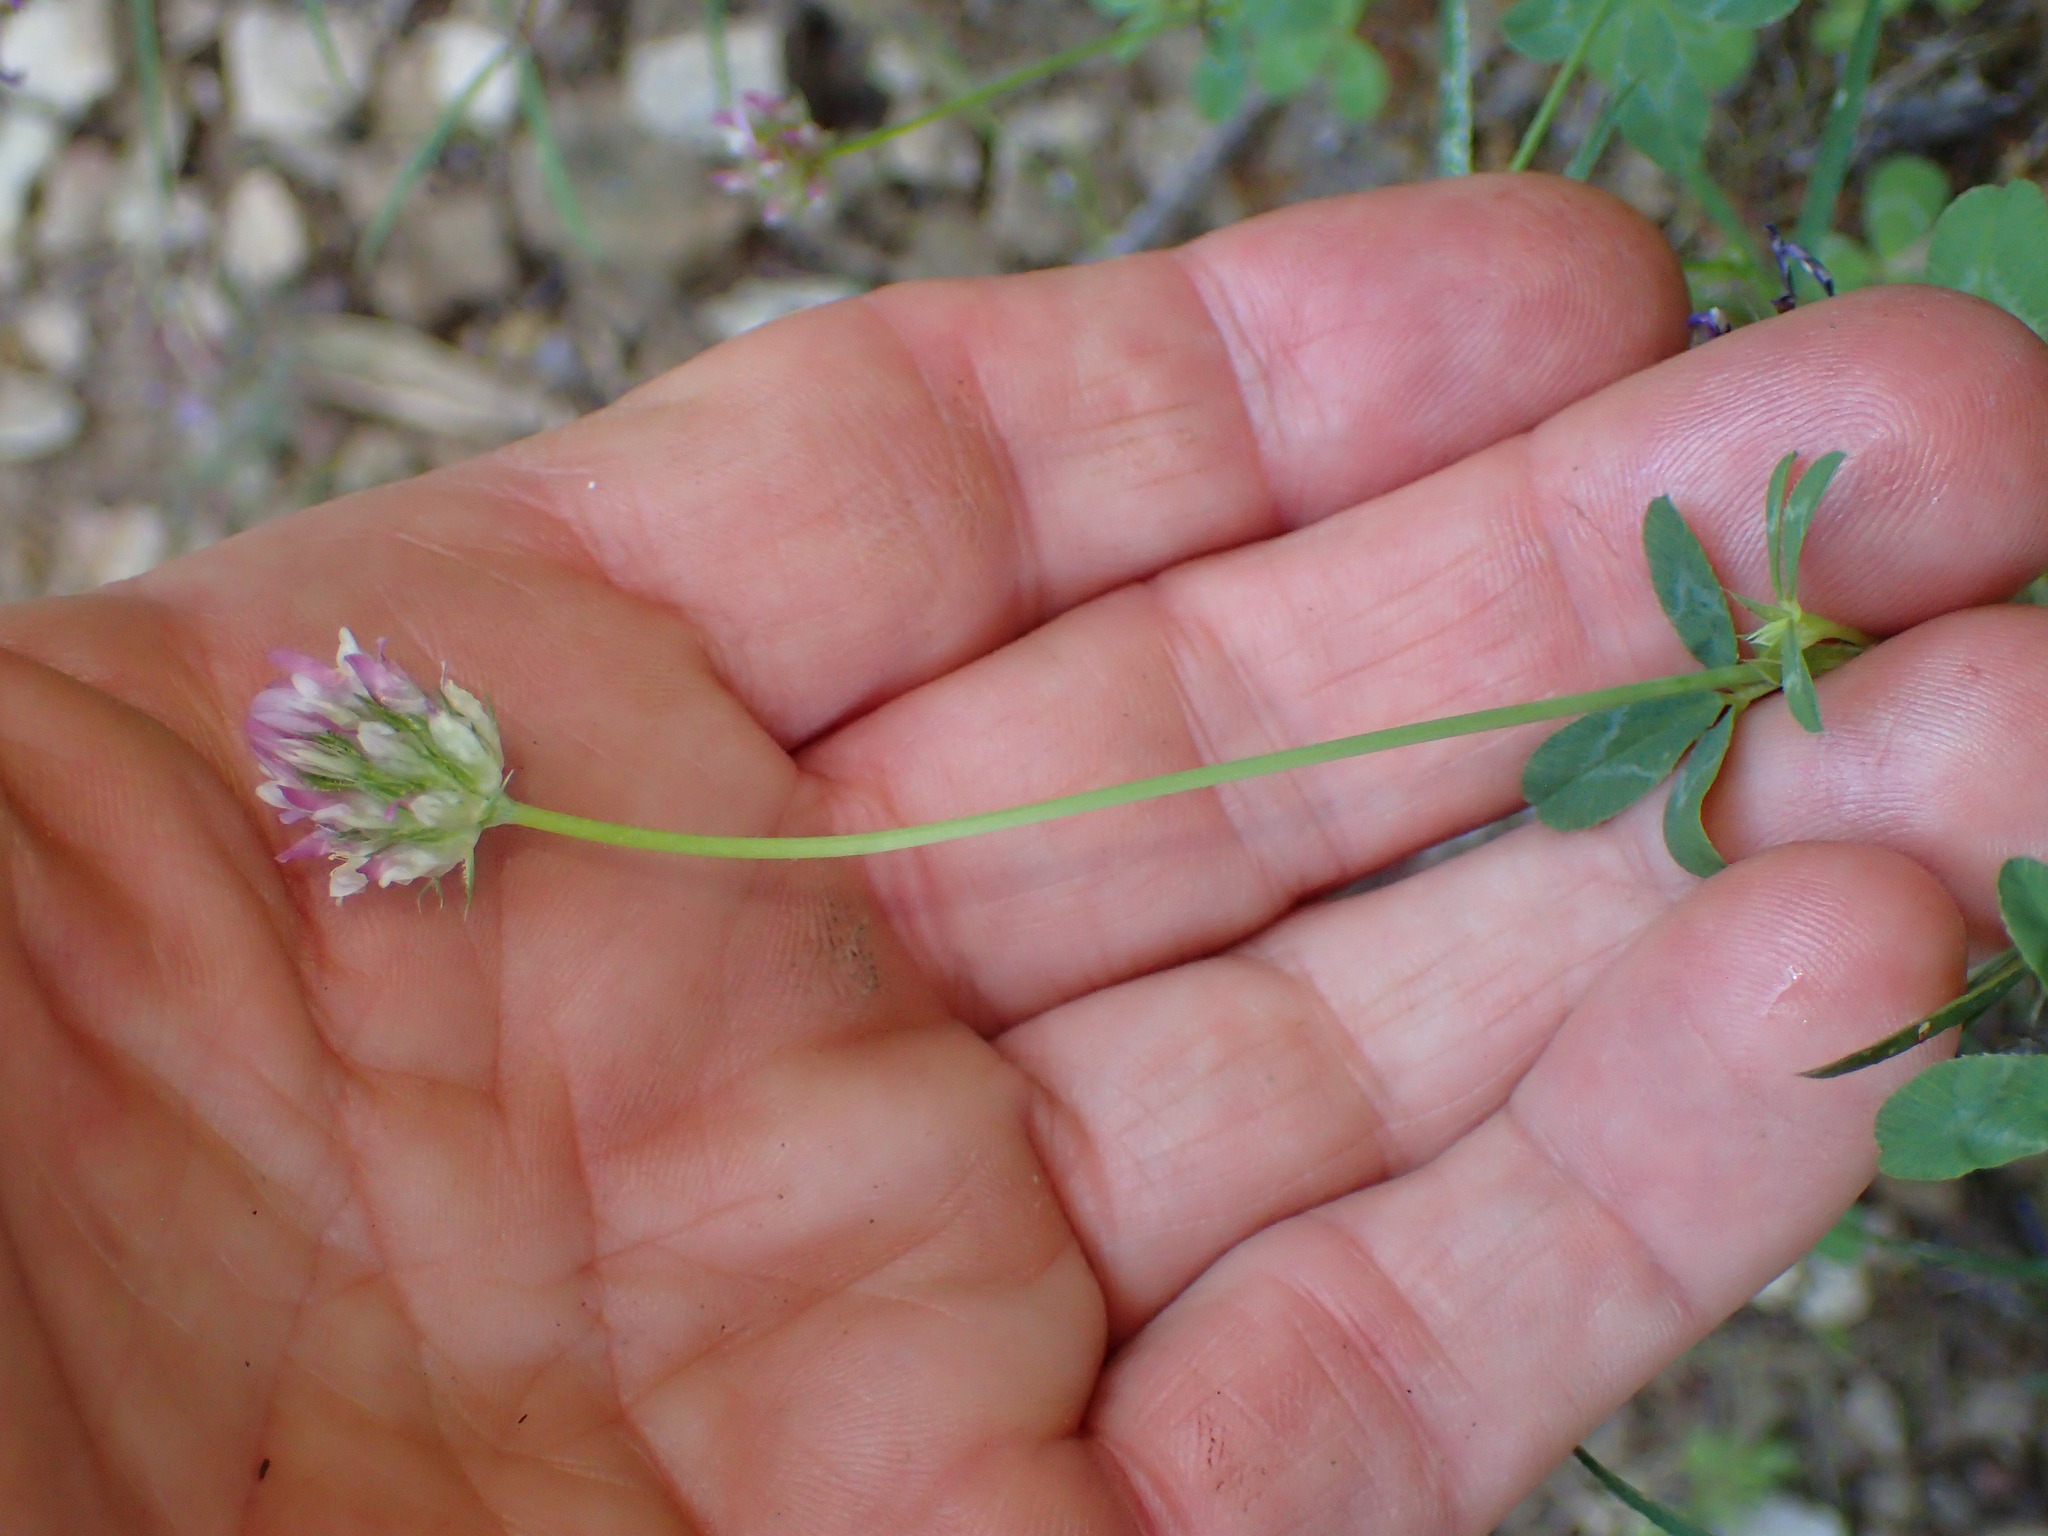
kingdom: Plantae
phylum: Tracheophyta
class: Magnoliopsida
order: Fabales
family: Fabaceae
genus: Trifolium
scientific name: Trifolium ciliolatum
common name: Foothill clover
